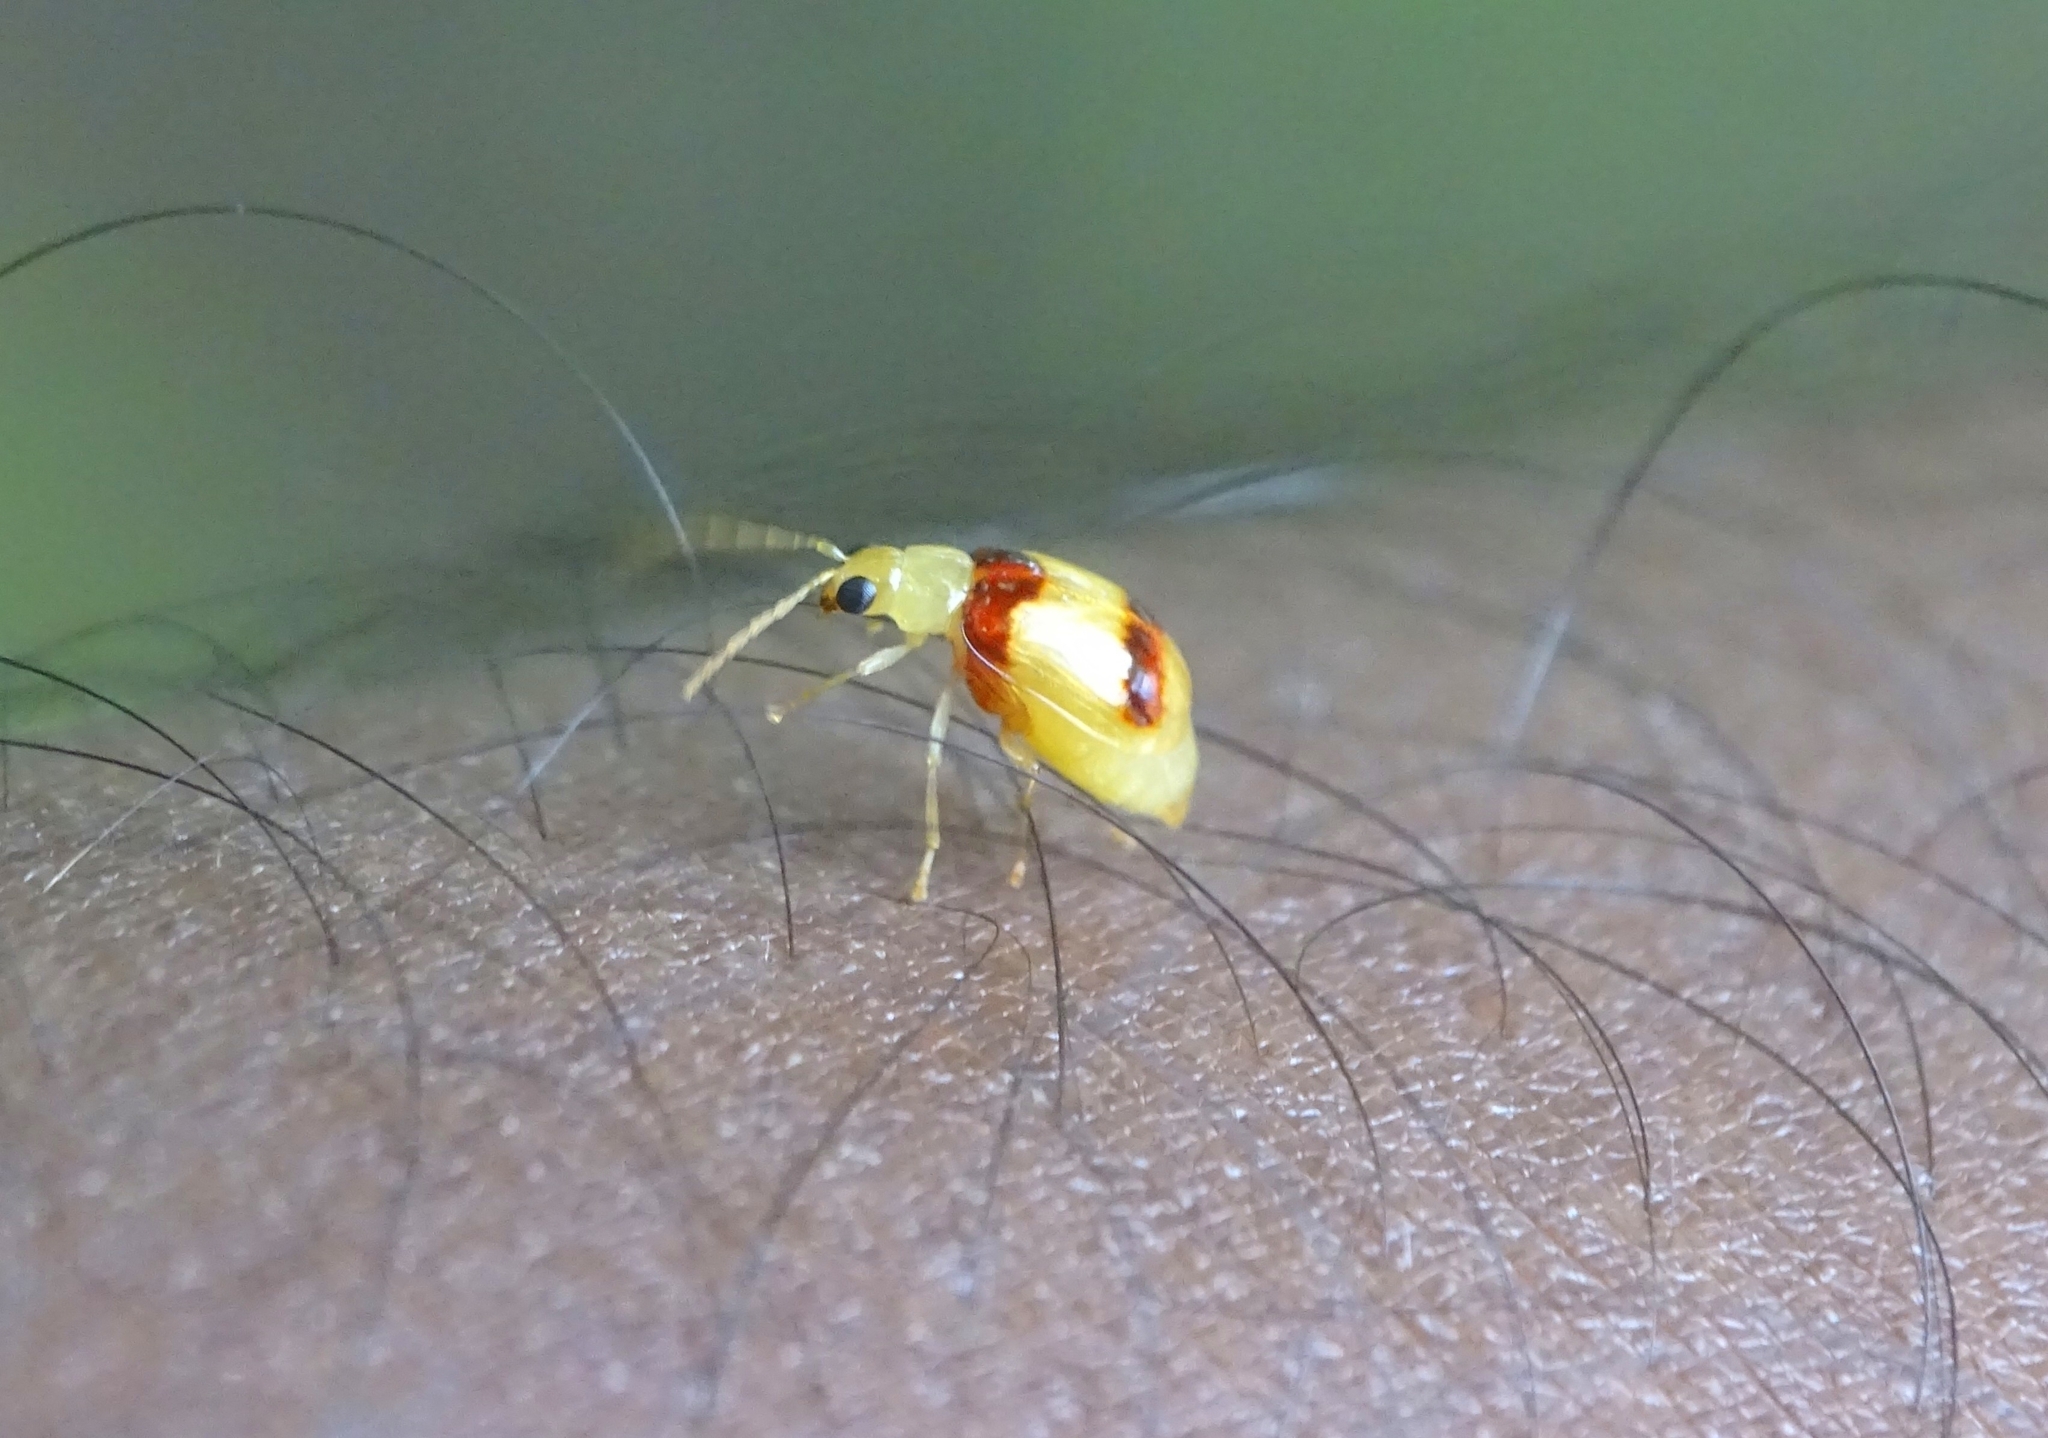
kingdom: Animalia
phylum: Arthropoda
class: Insecta
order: Coleoptera
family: Chrysomelidae
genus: Monolepta
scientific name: Monolepta
